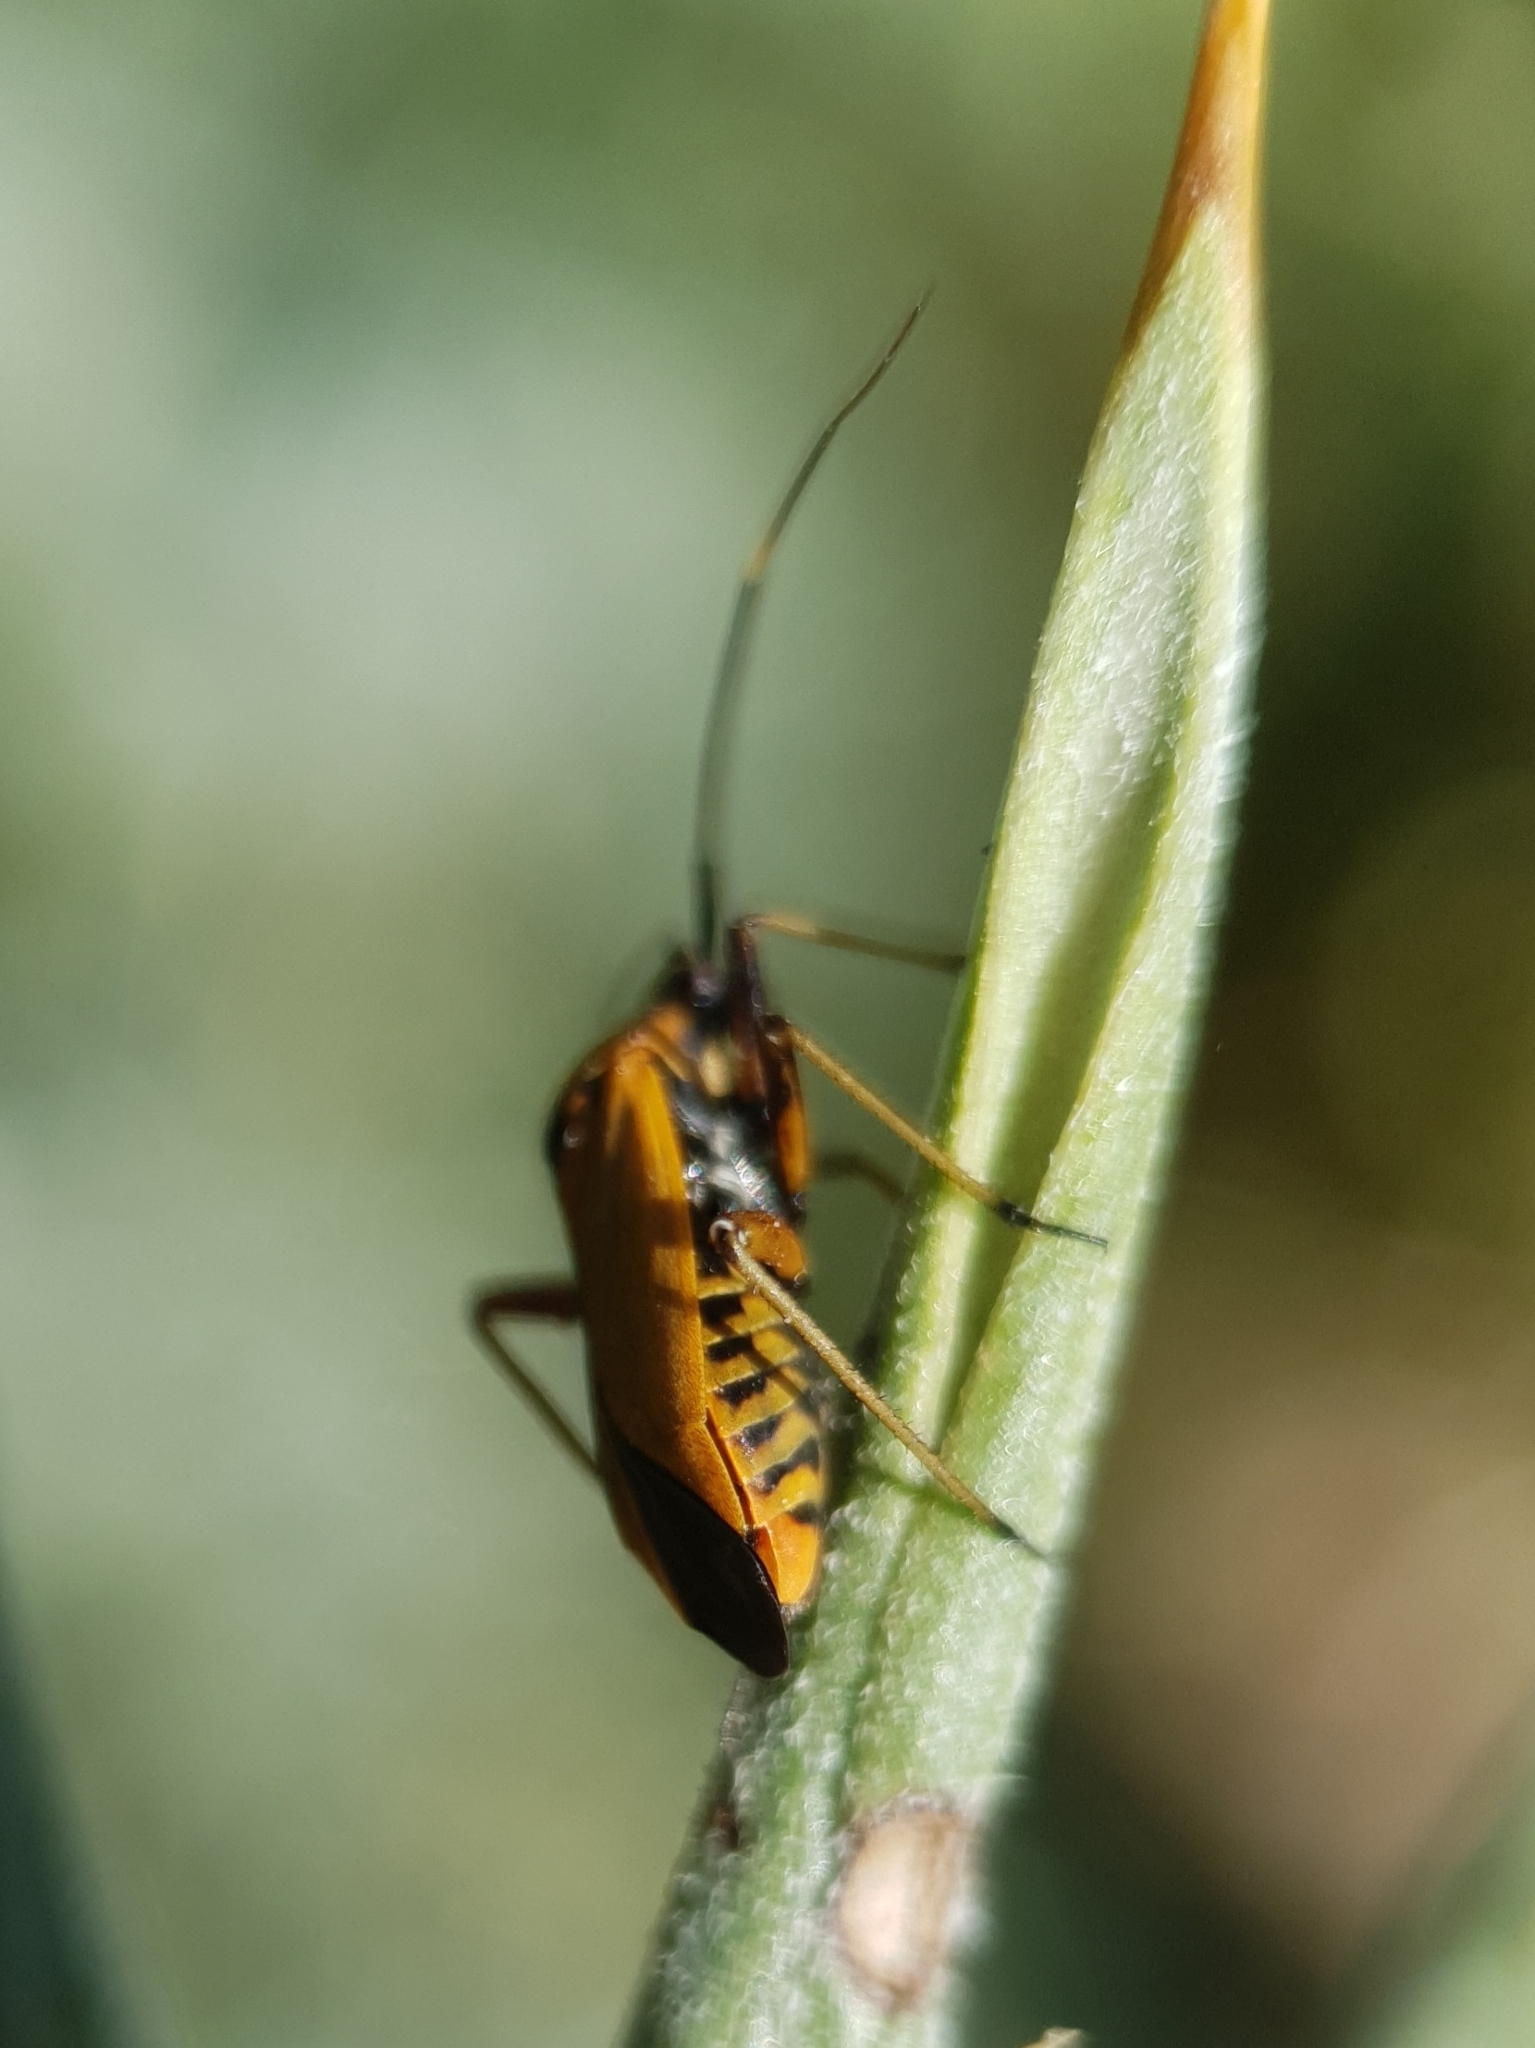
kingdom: Animalia
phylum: Arthropoda
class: Insecta
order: Hemiptera
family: Miridae
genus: Calocoris
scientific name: Calocoris nemoralis
